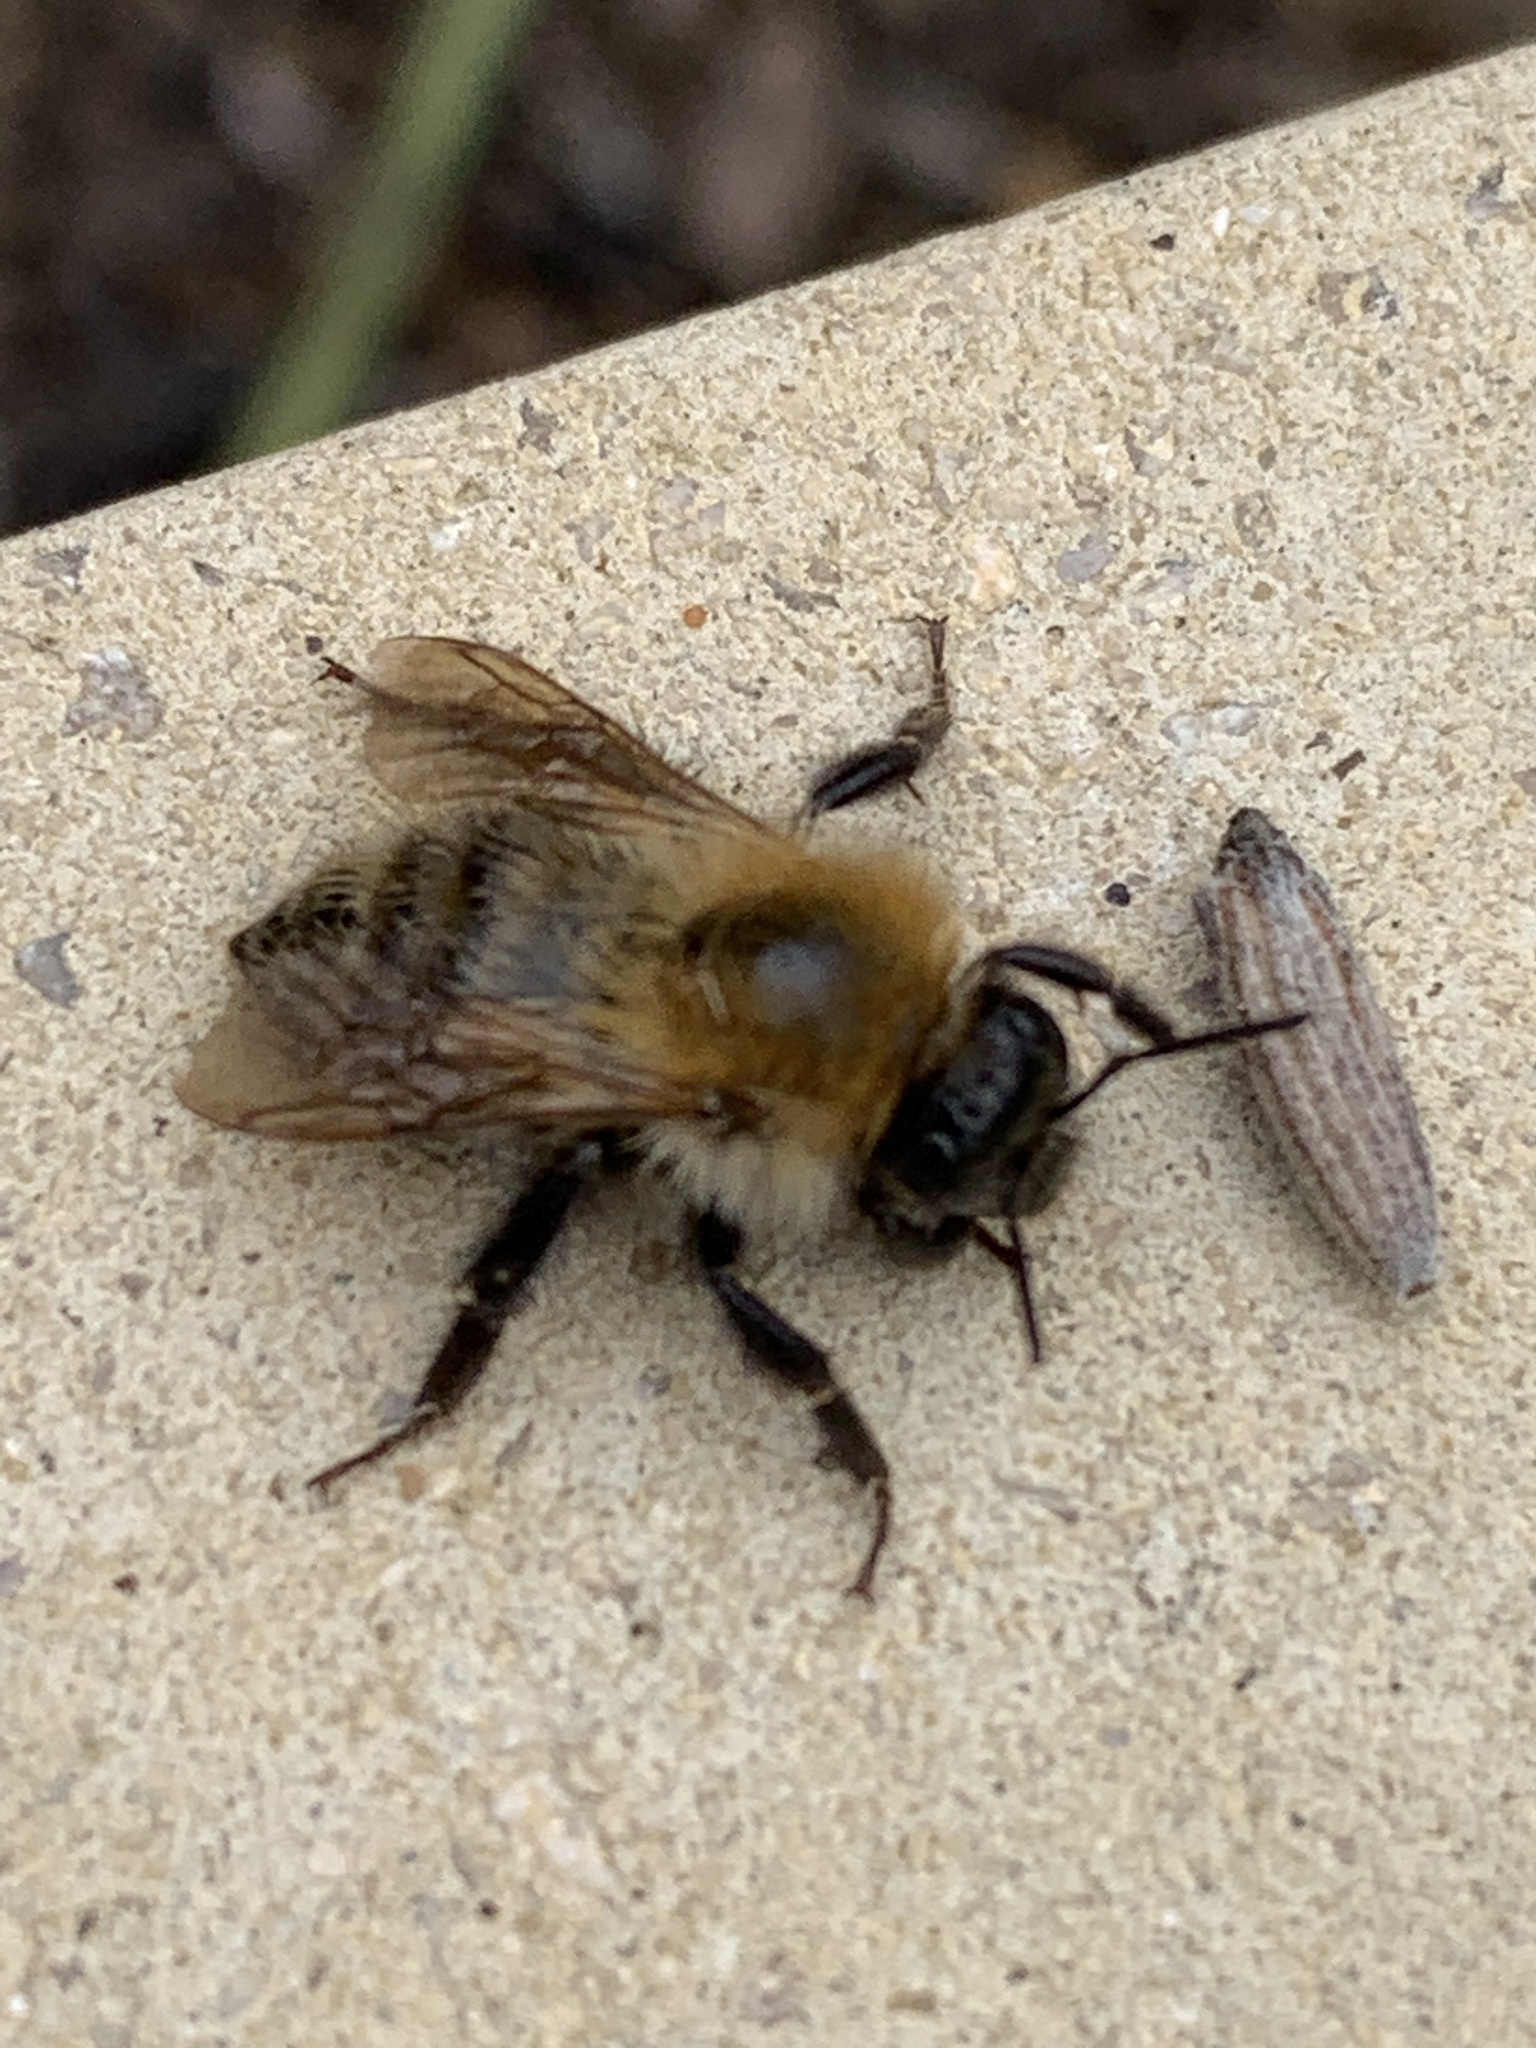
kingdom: Animalia
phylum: Arthropoda
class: Insecta
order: Hymenoptera
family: Apidae
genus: Bombus
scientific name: Bombus pascuorum
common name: Common carder bee
